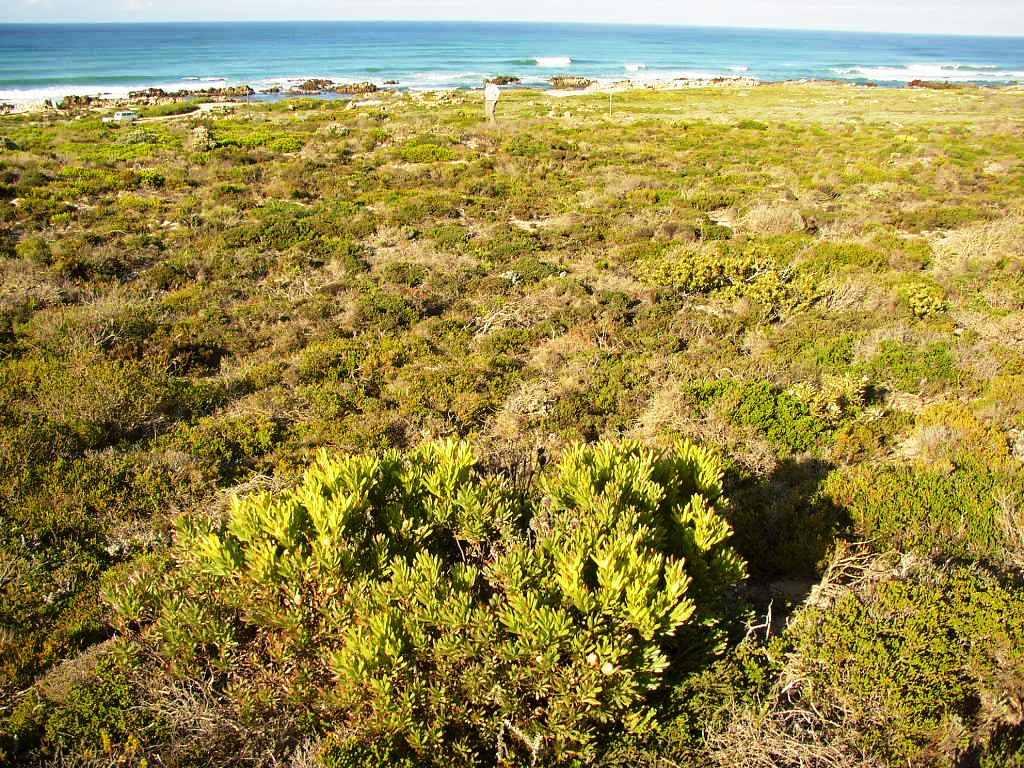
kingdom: Plantae
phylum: Tracheophyta
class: Magnoliopsida
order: Proteales
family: Proteaceae
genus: Leucadendron
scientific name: Leucadendron meridianum
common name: Limestone conebush
